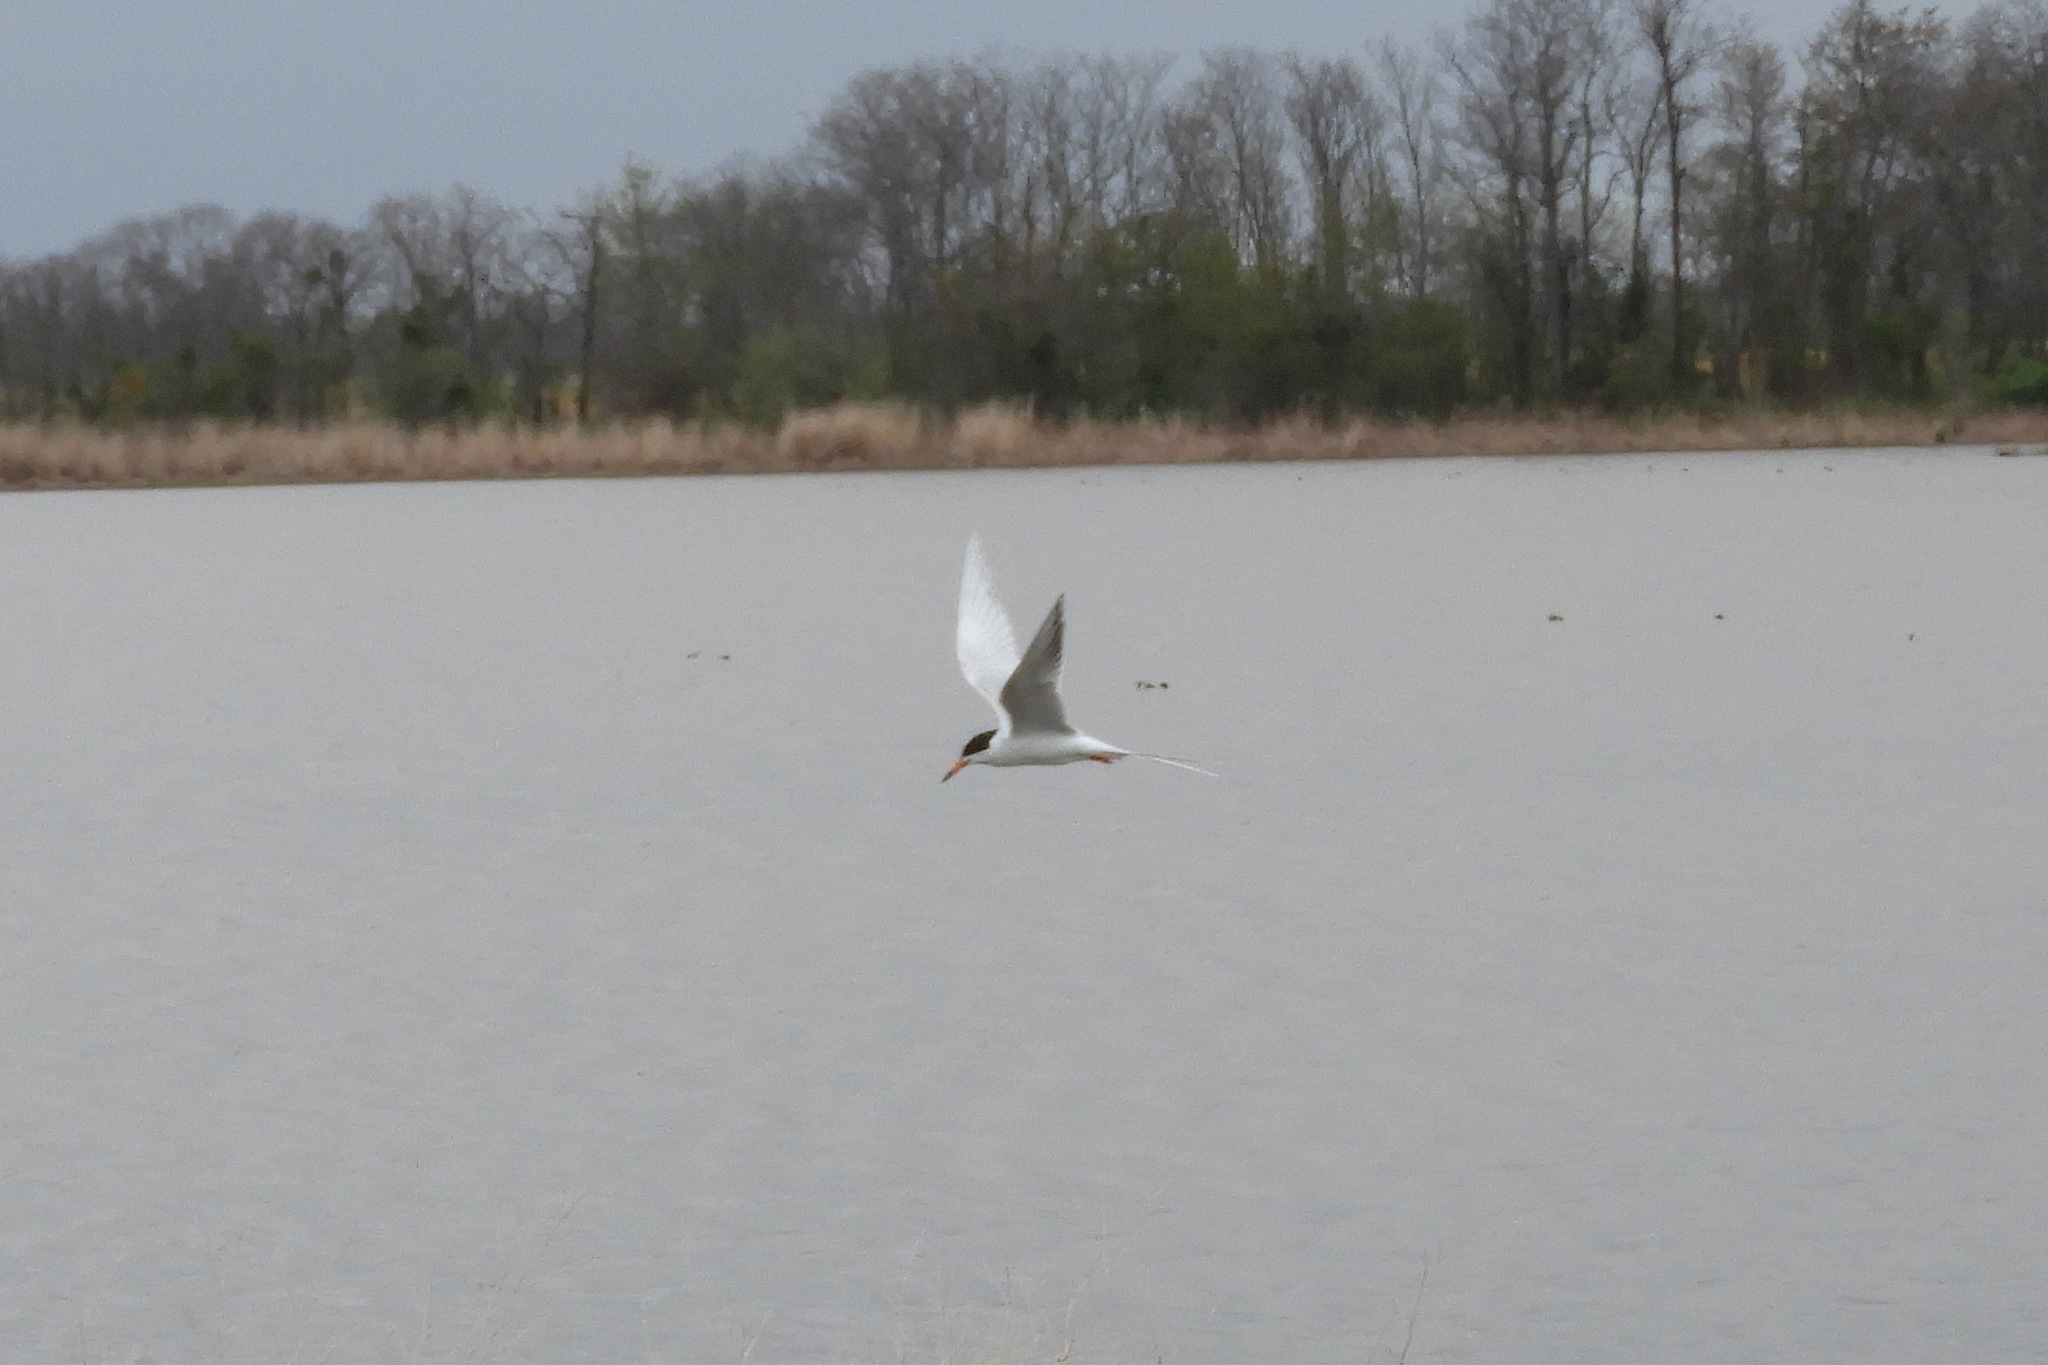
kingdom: Animalia
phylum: Chordata
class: Aves
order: Charadriiformes
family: Laridae
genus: Sterna
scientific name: Sterna forsteri
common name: Forster's tern
